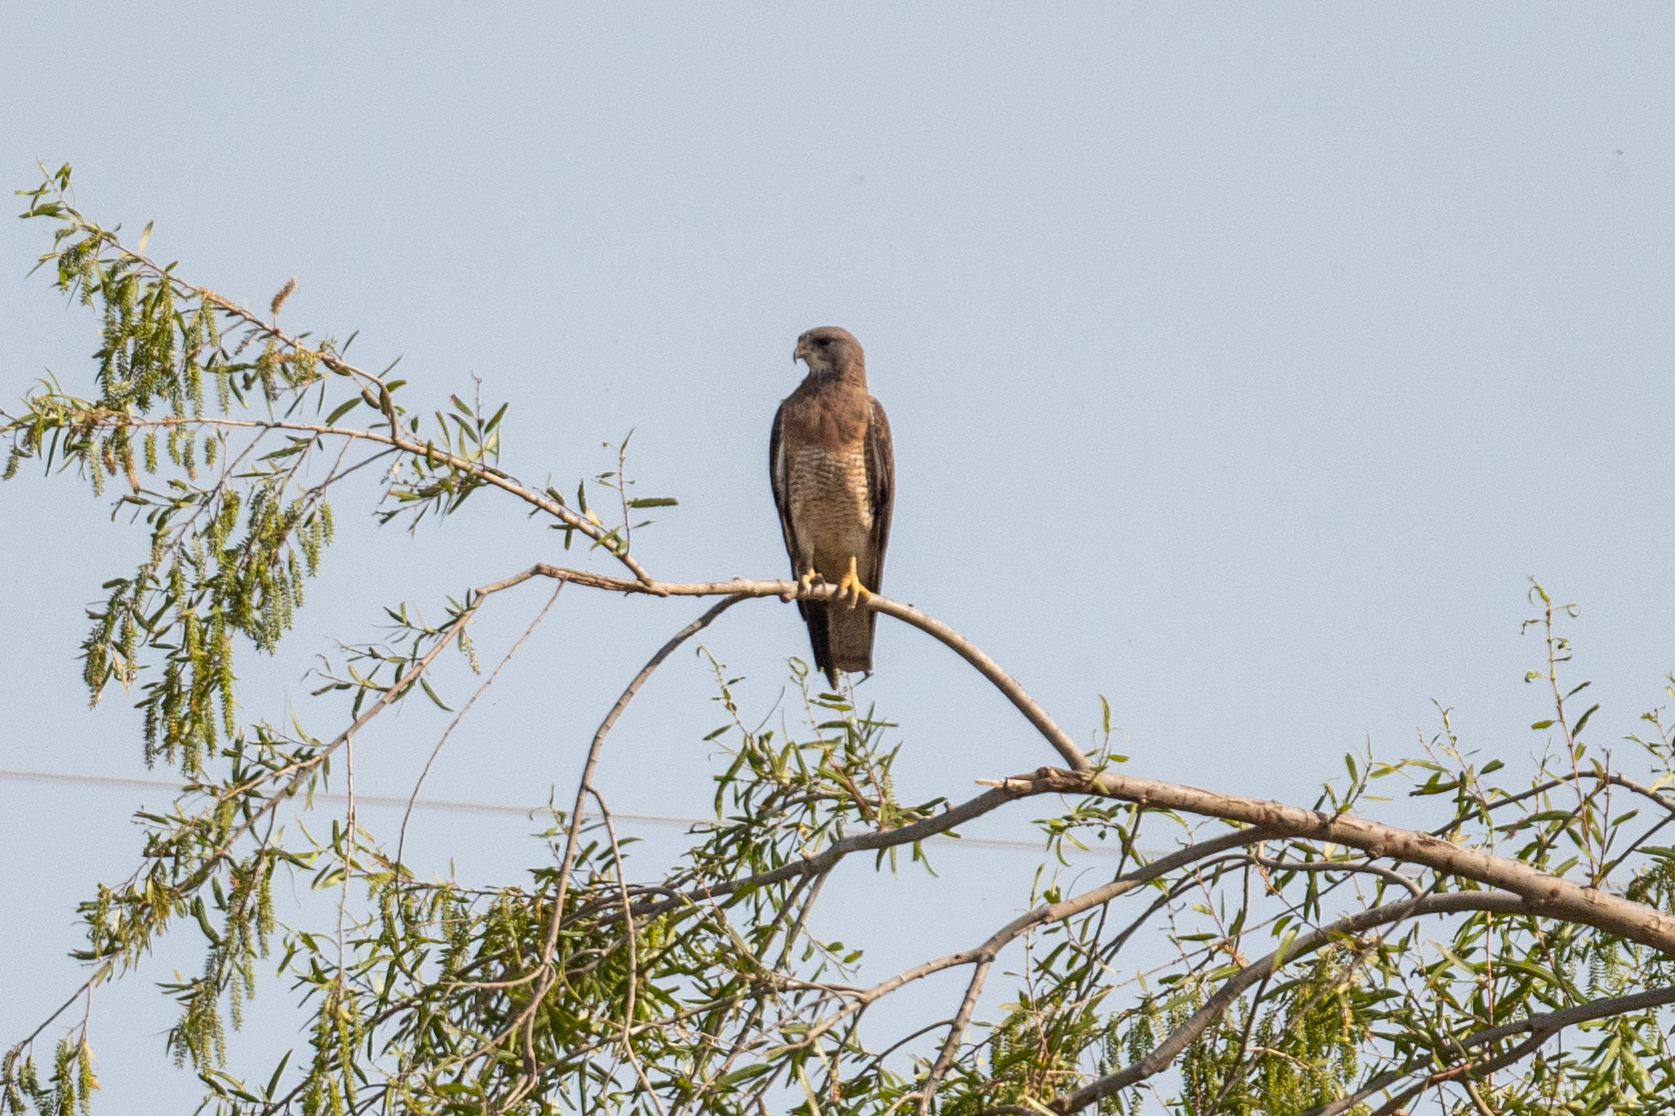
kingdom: Animalia
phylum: Chordata
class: Aves
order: Accipitriformes
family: Accipitridae
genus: Buteo
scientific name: Buteo swainsoni
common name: Swainson's hawk
